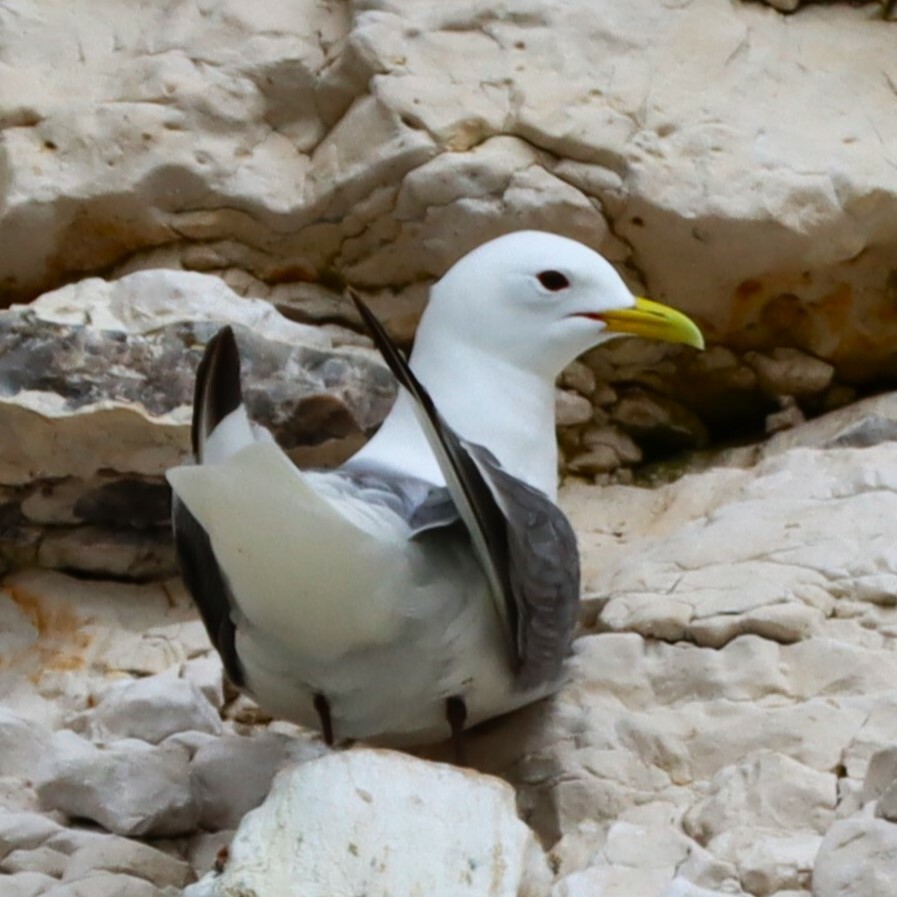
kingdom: Animalia
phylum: Chordata
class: Aves
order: Charadriiformes
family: Laridae
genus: Rissa
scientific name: Rissa tridactyla
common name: Black-legged kittiwake
